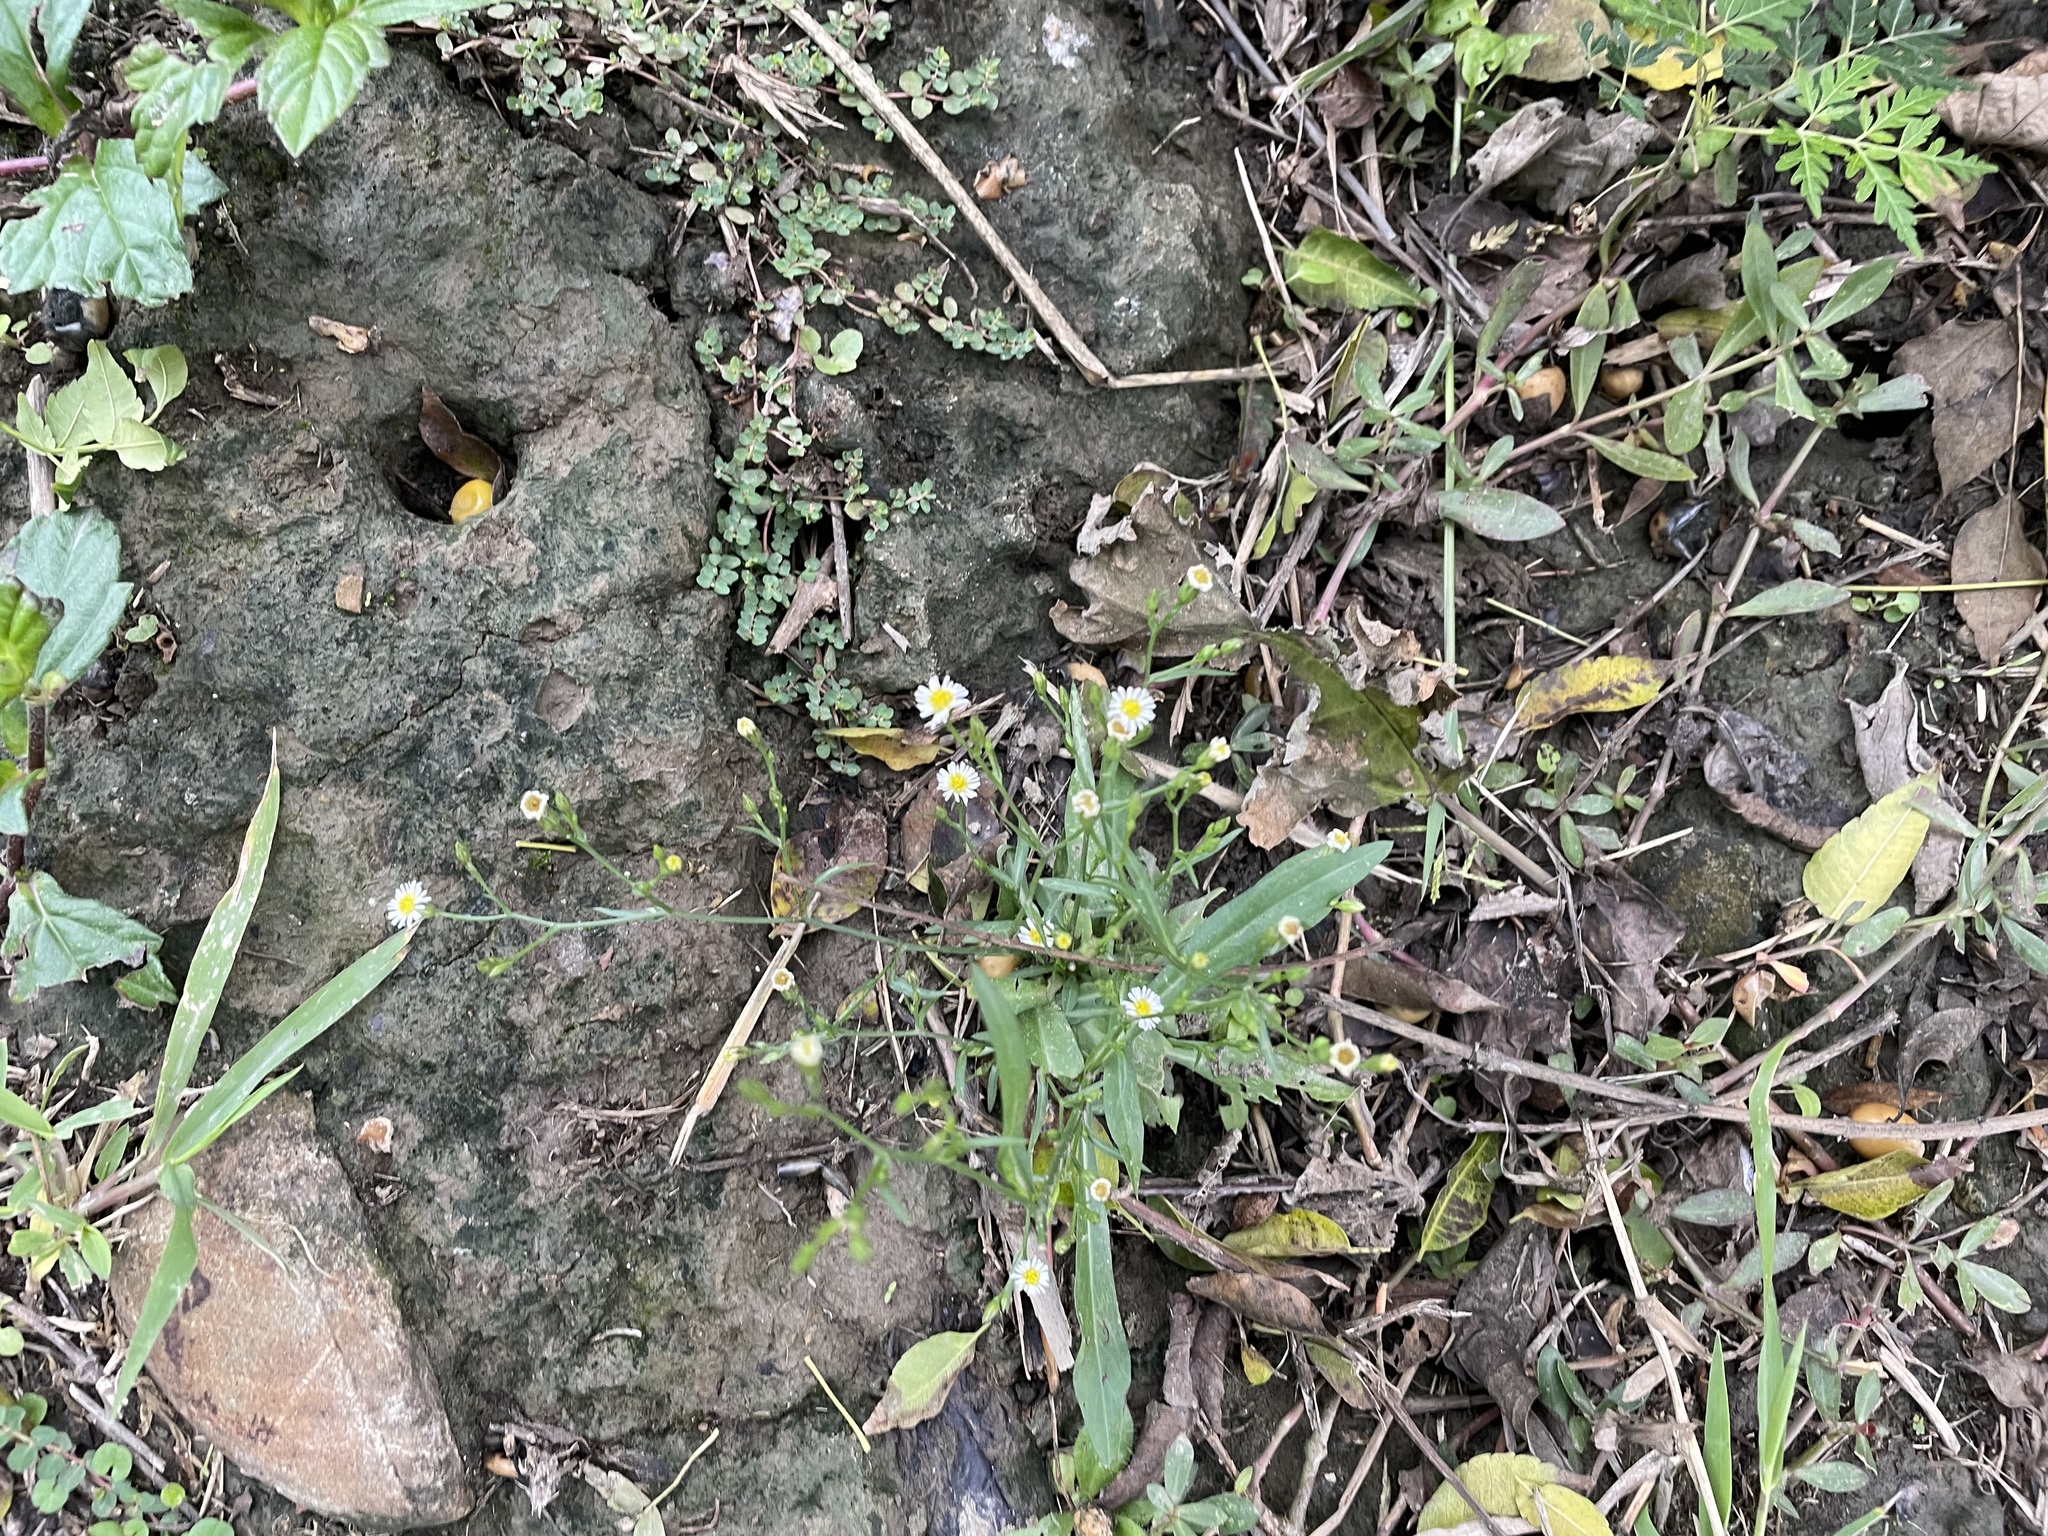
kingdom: Plantae
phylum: Tracheophyta
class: Magnoliopsida
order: Asterales
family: Asteraceae
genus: Symphyotrichum
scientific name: Symphyotrichum subulatum
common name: Annual saltmarsh aster
